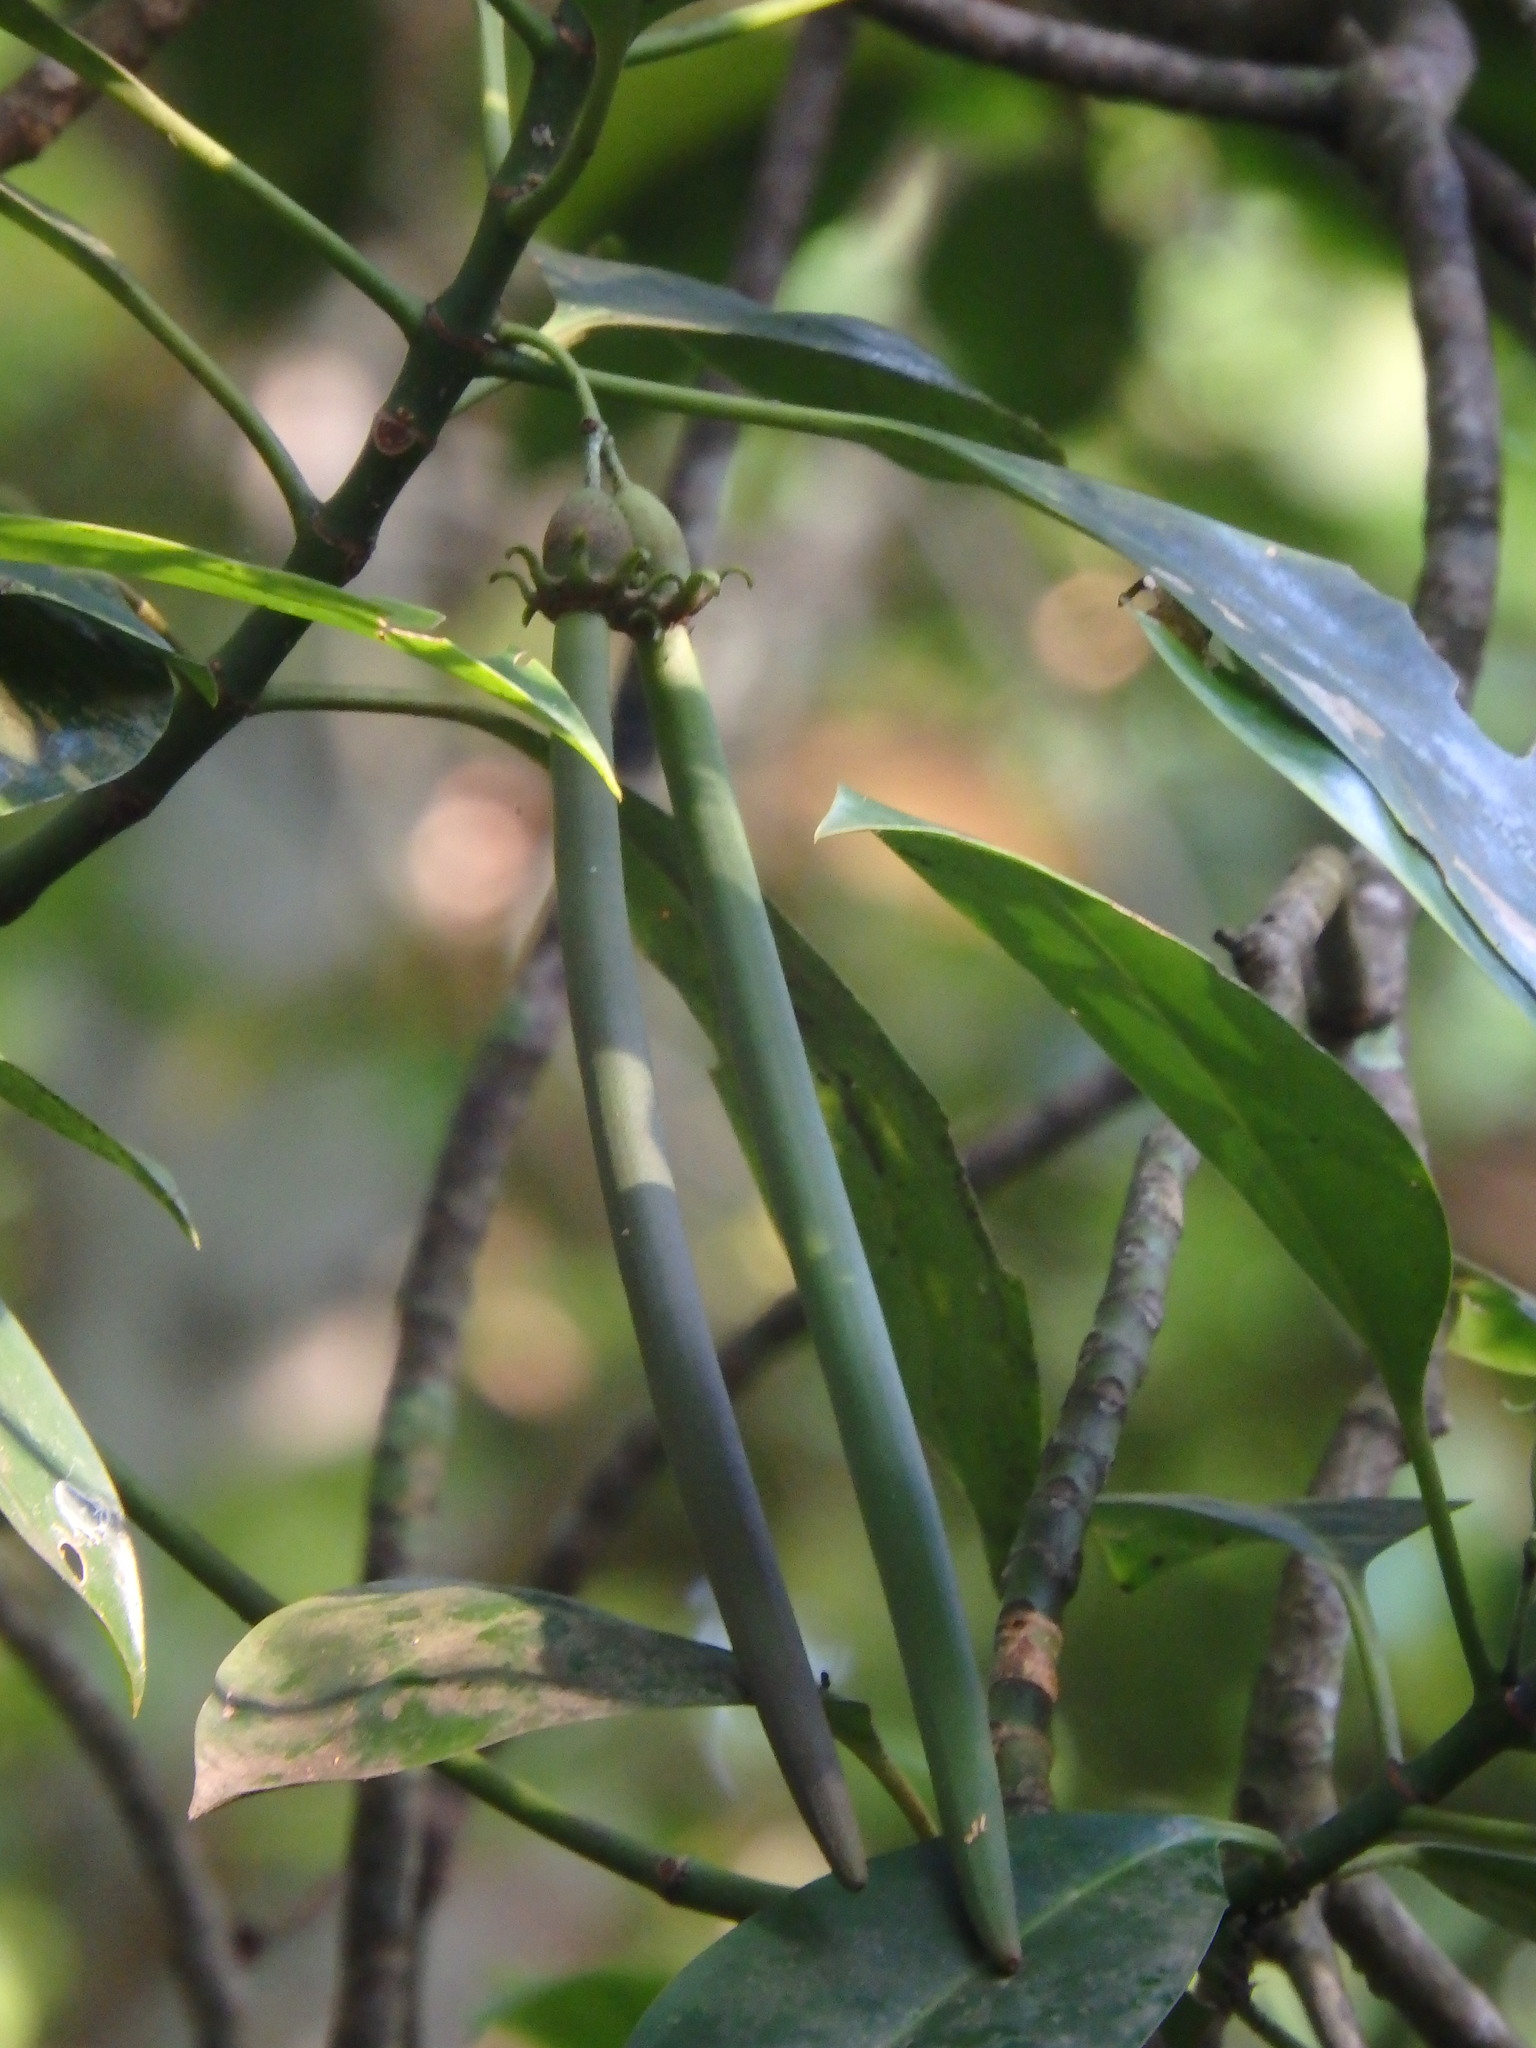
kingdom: Plantae
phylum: Tracheophyta
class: Magnoliopsida
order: Malpighiales
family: Rhizophoraceae
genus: Bruguiera
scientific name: Bruguiera cylindrica
